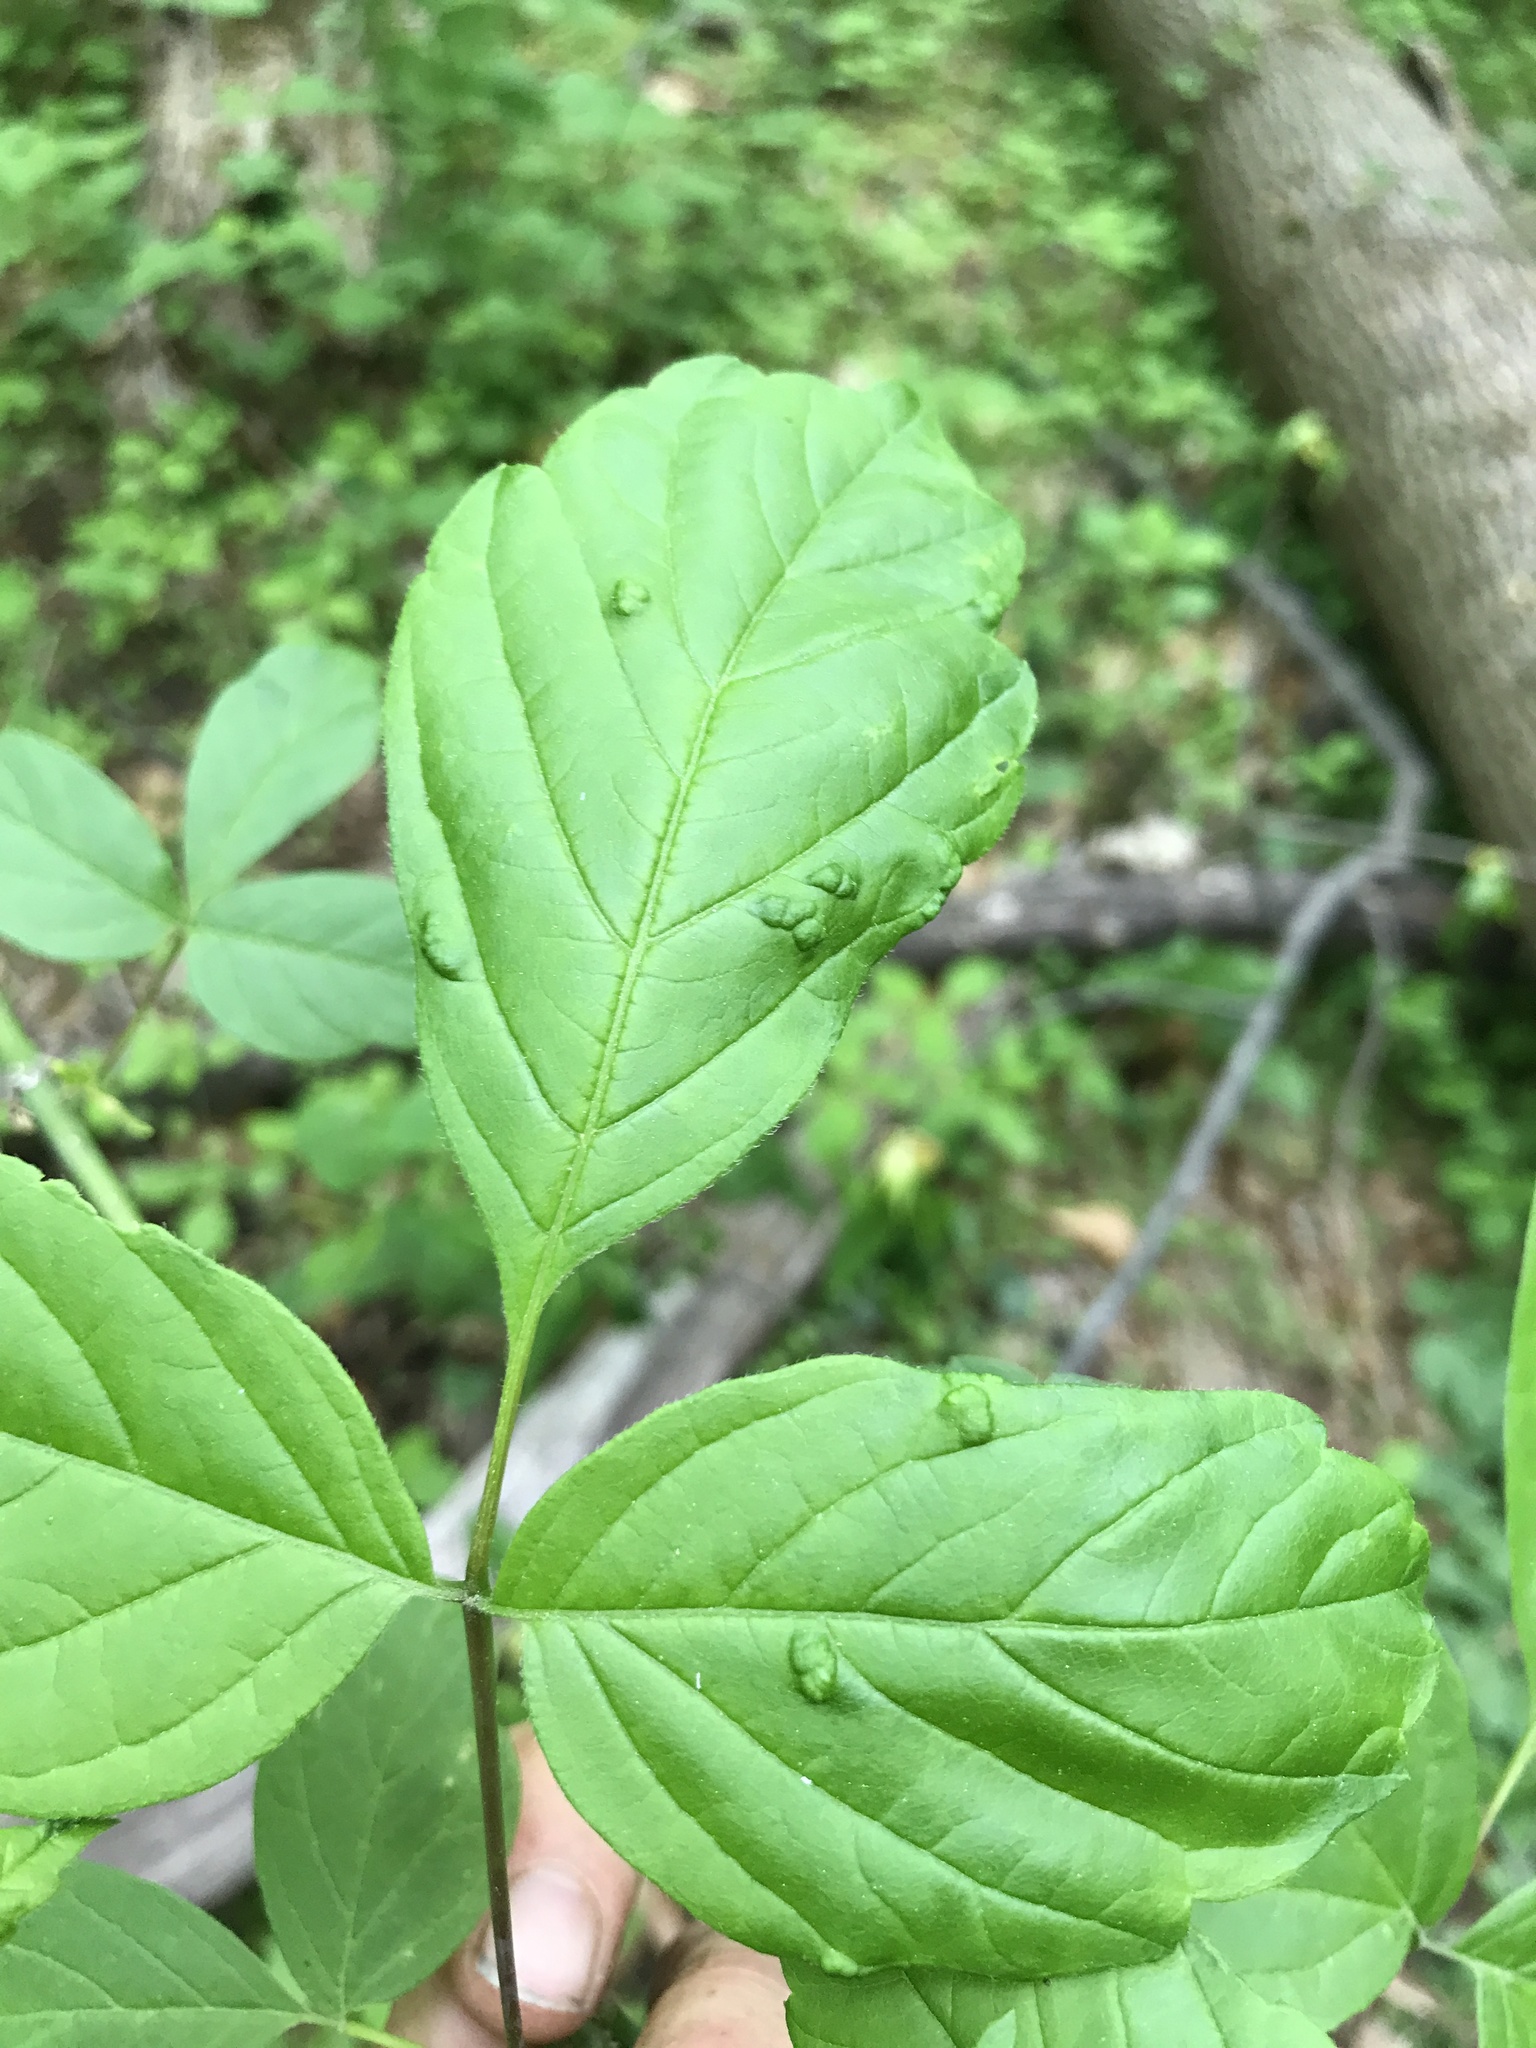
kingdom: Animalia
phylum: Arthropoda
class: Arachnida
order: Trombidiformes
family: Eriophyidae
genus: Aceria
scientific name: Aceria
